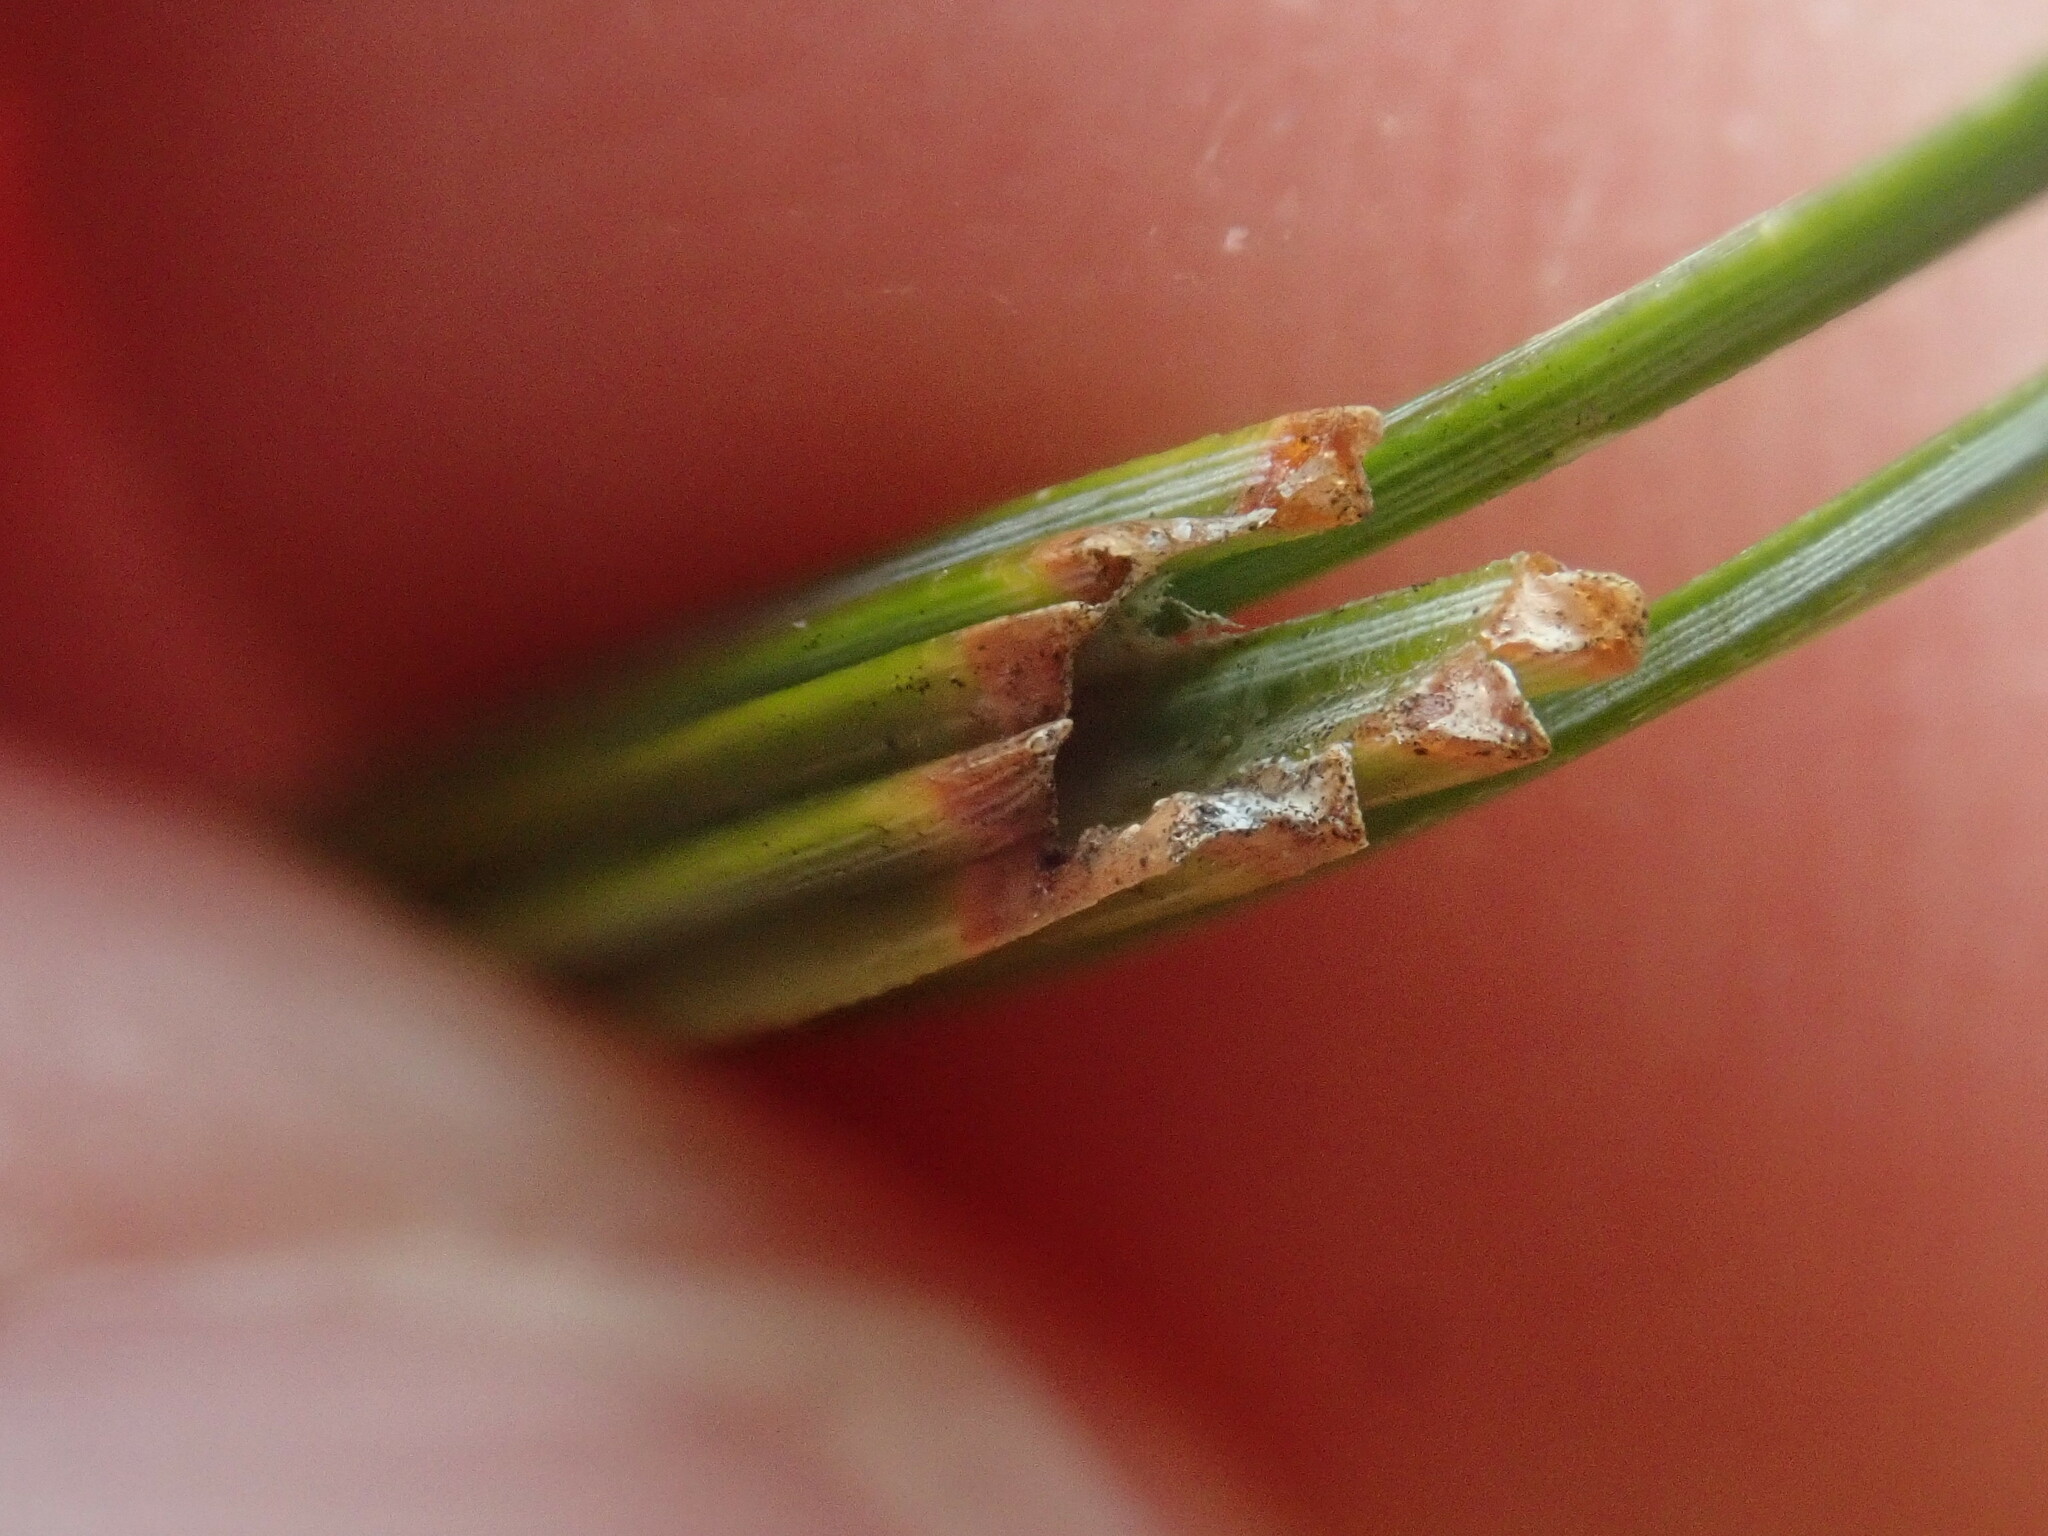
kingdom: Animalia
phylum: Arthropoda
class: Insecta
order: Lepidoptera
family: Tortricidae
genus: Argyrotaenia
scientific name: Argyrotaenia pinatubana
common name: Pine tube moth
